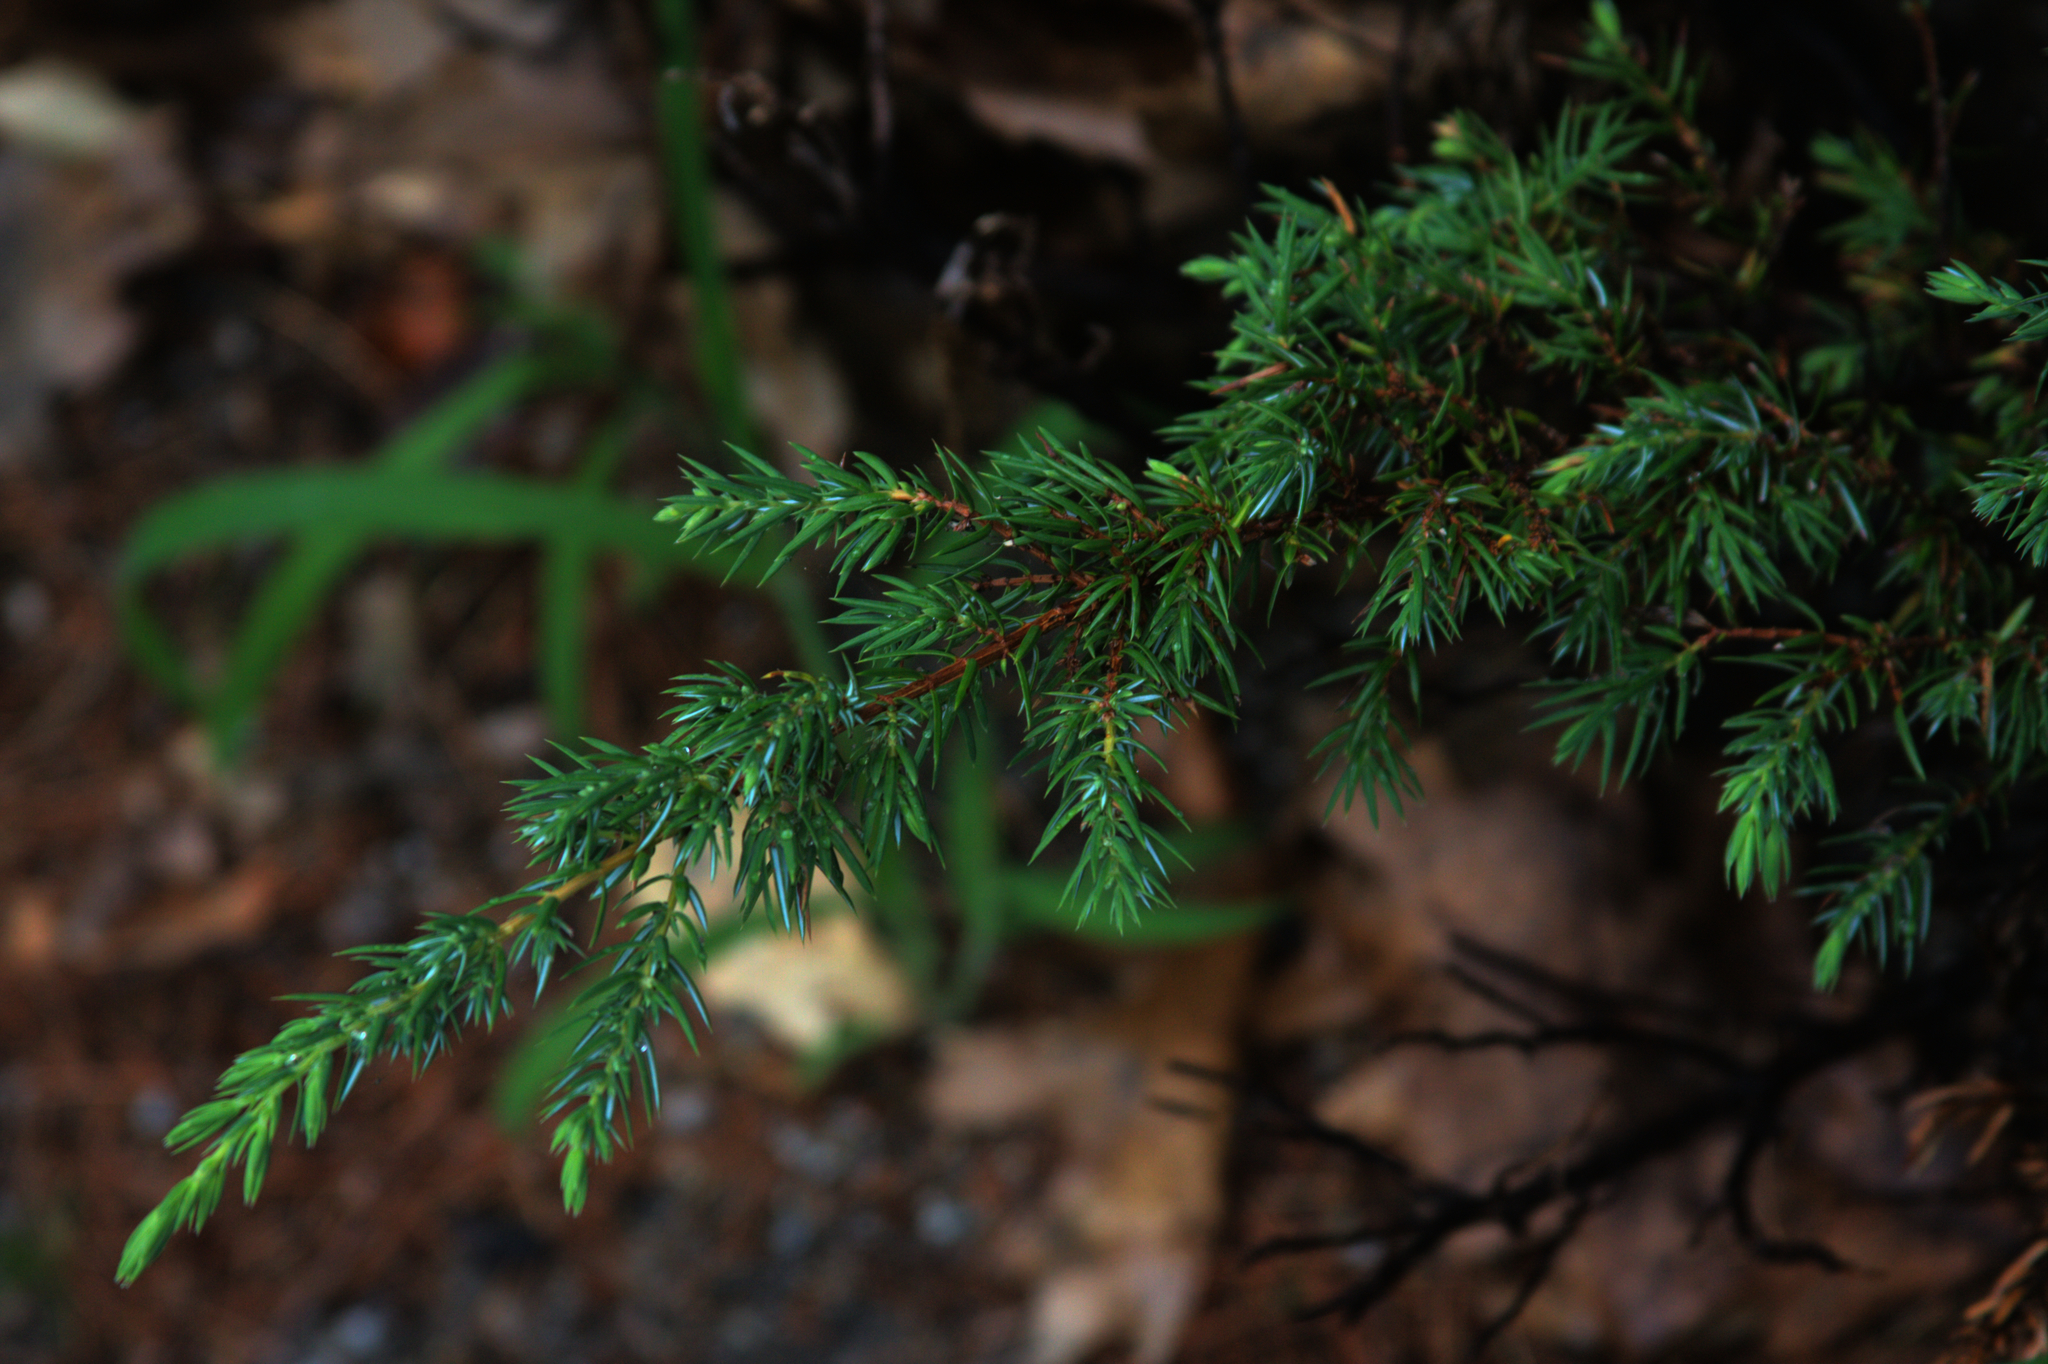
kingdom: Plantae
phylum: Tracheophyta
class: Pinopsida
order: Pinales
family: Cupressaceae
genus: Juniperus
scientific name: Juniperus communis
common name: Common juniper
